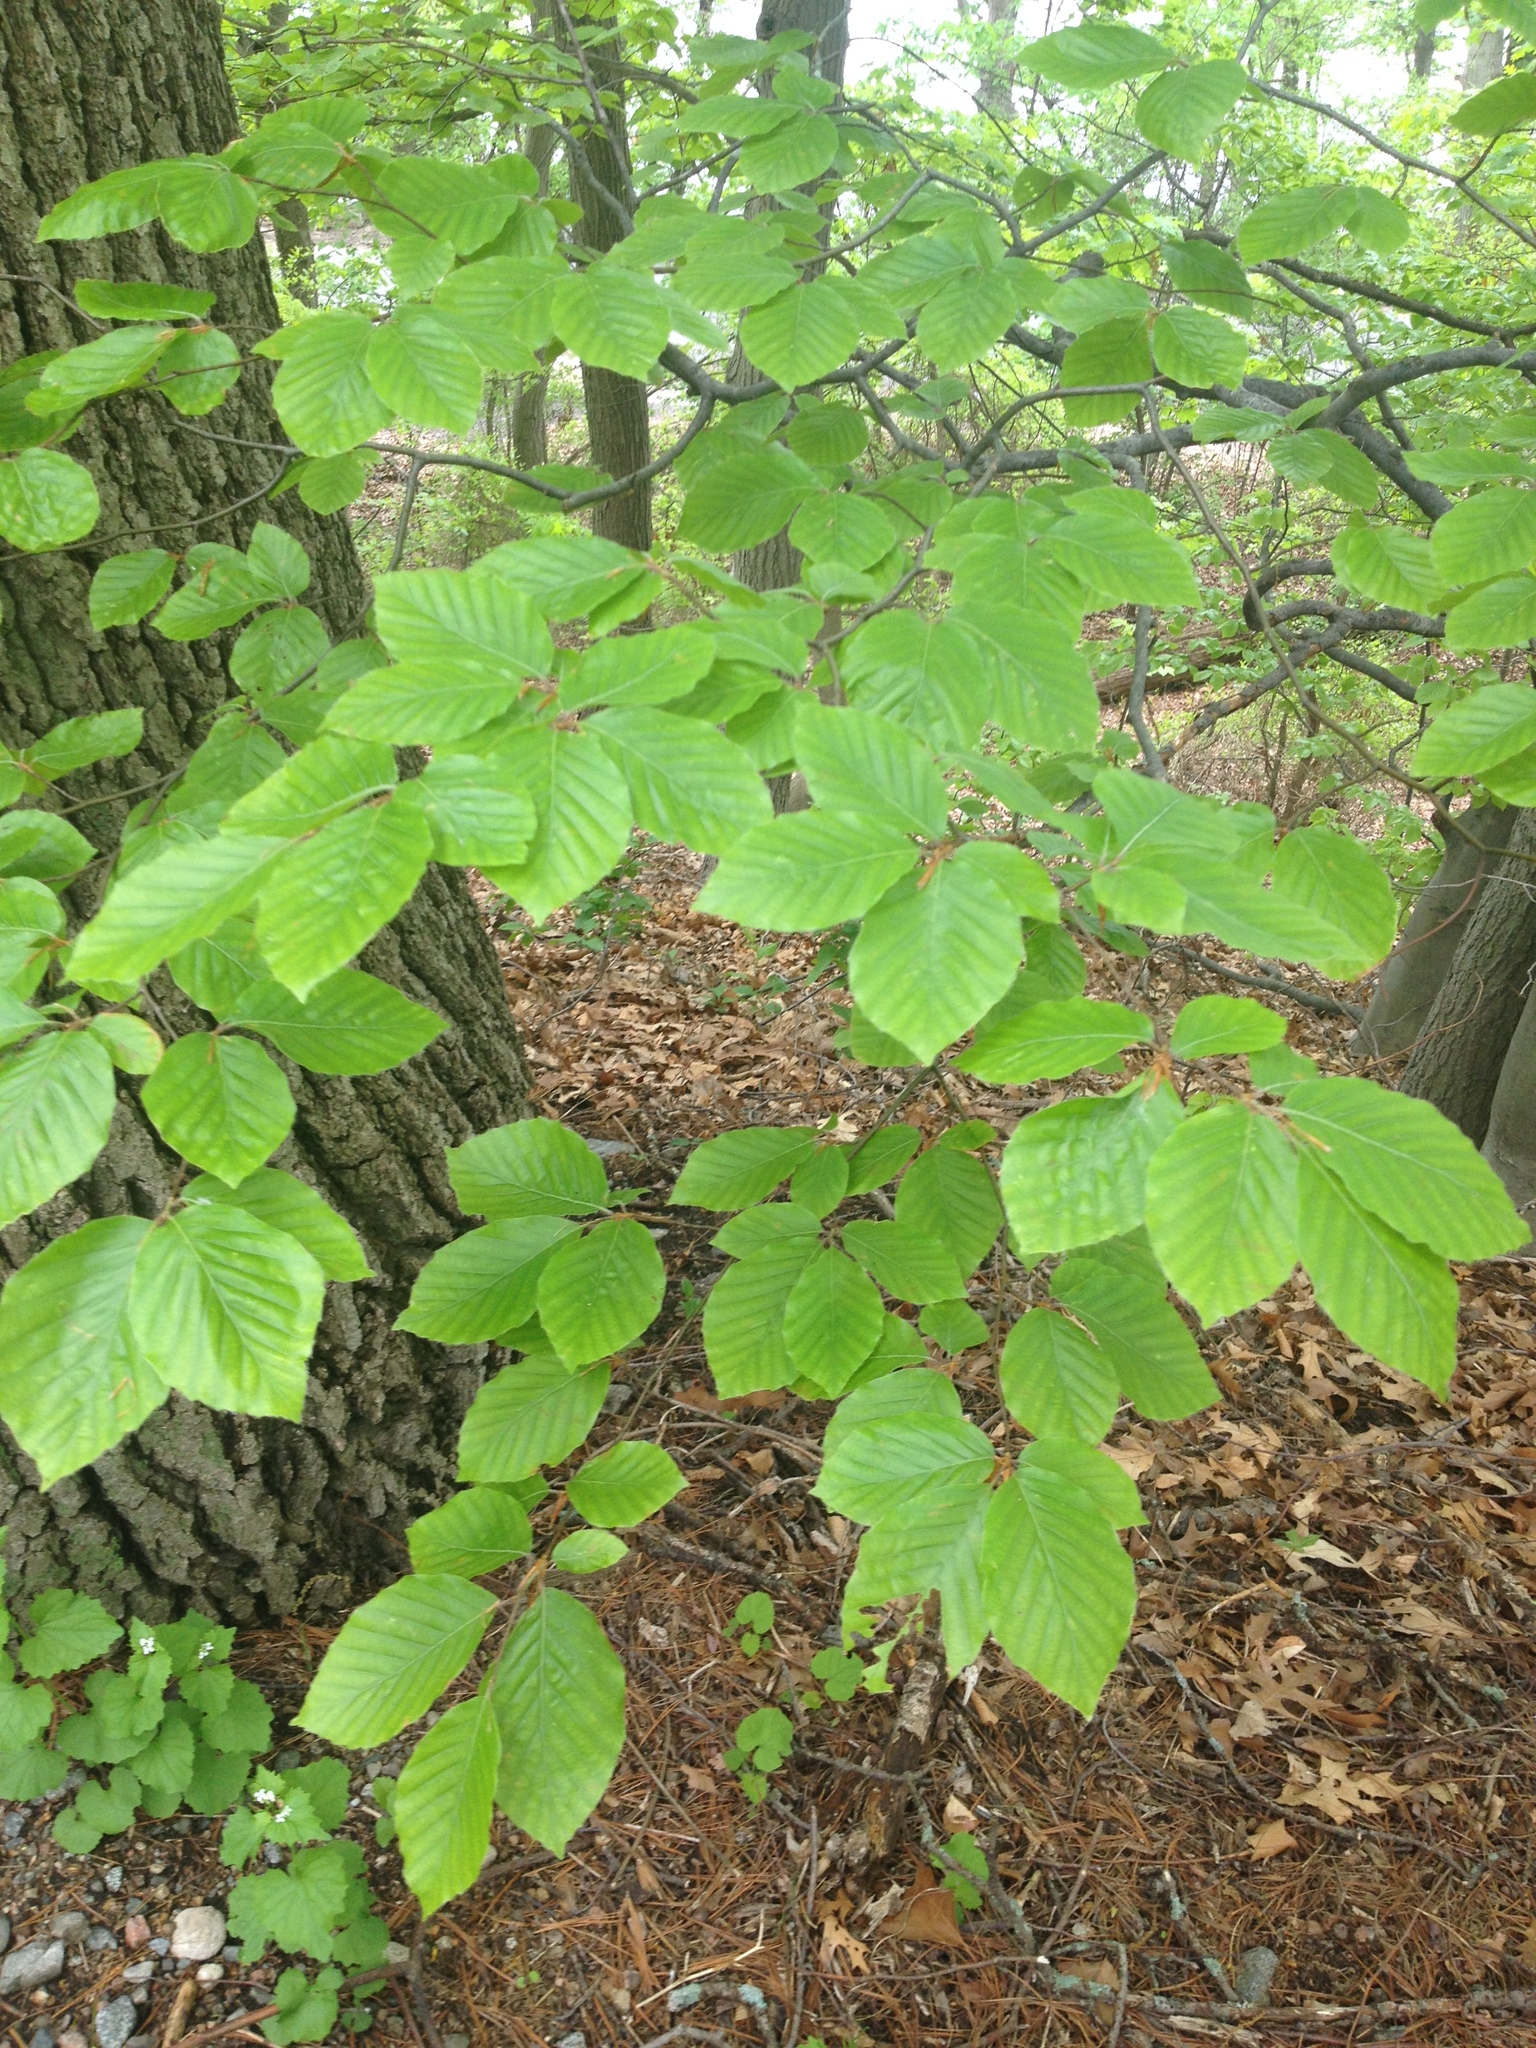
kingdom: Plantae
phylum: Tracheophyta
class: Magnoliopsida
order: Fagales
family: Fagaceae
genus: Fagus
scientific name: Fagus grandifolia
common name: American beech
